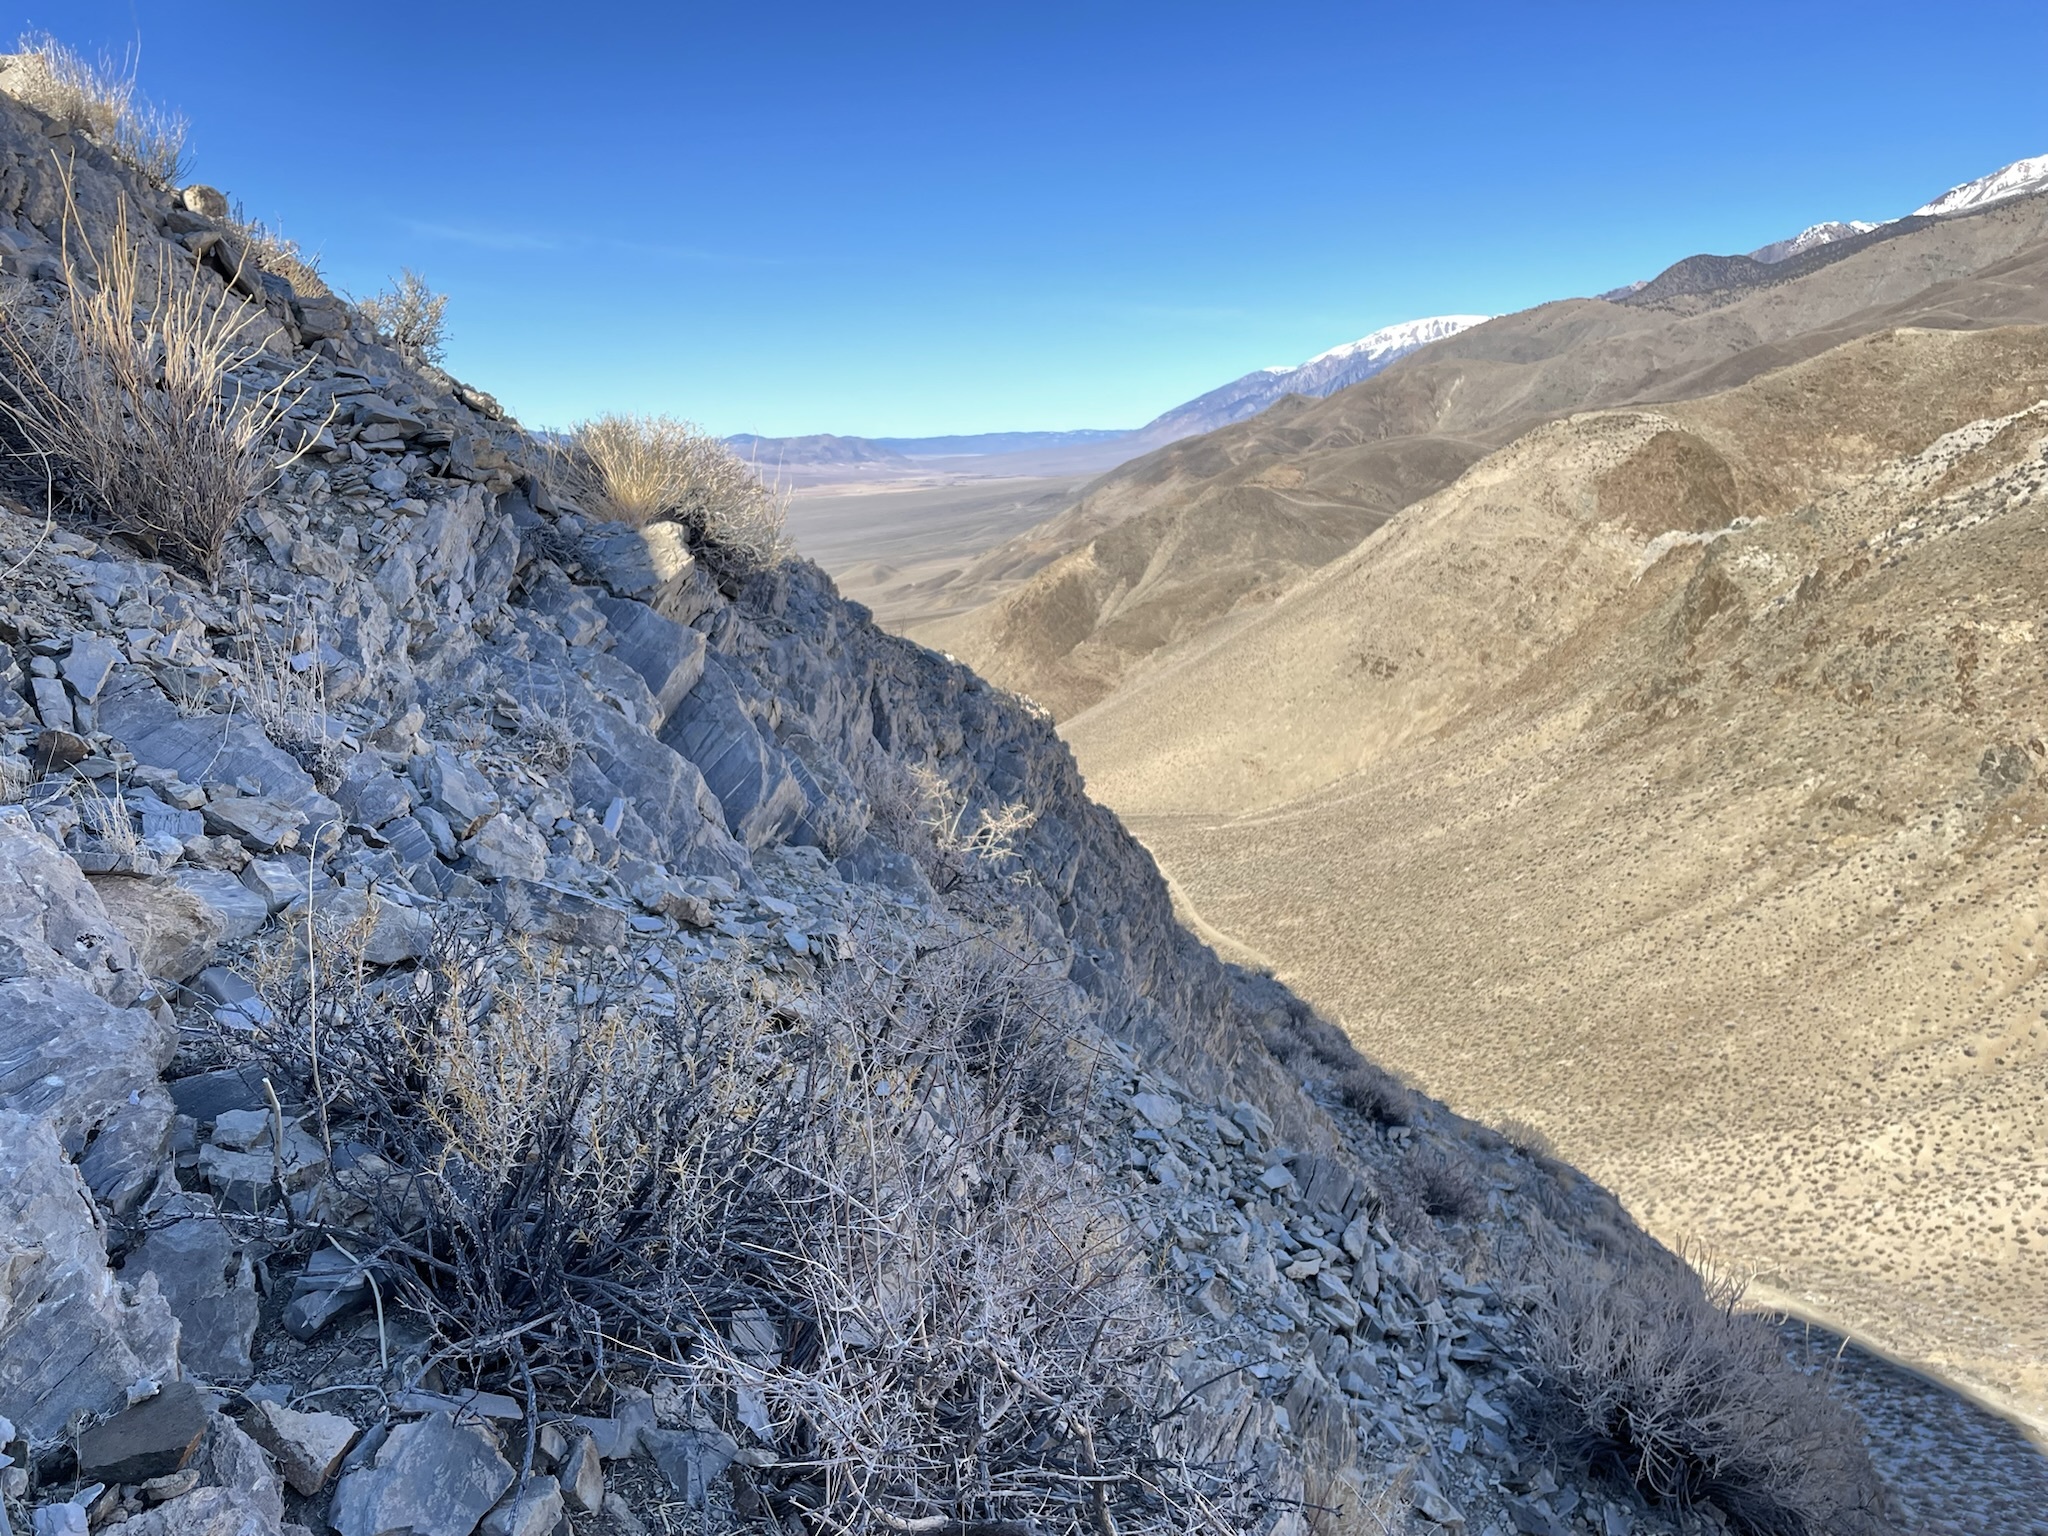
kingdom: Plantae
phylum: Tracheophyta
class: Magnoliopsida
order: Asterales
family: Asteraceae
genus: Hecastocleis
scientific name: Hecastocleis shockleyi
